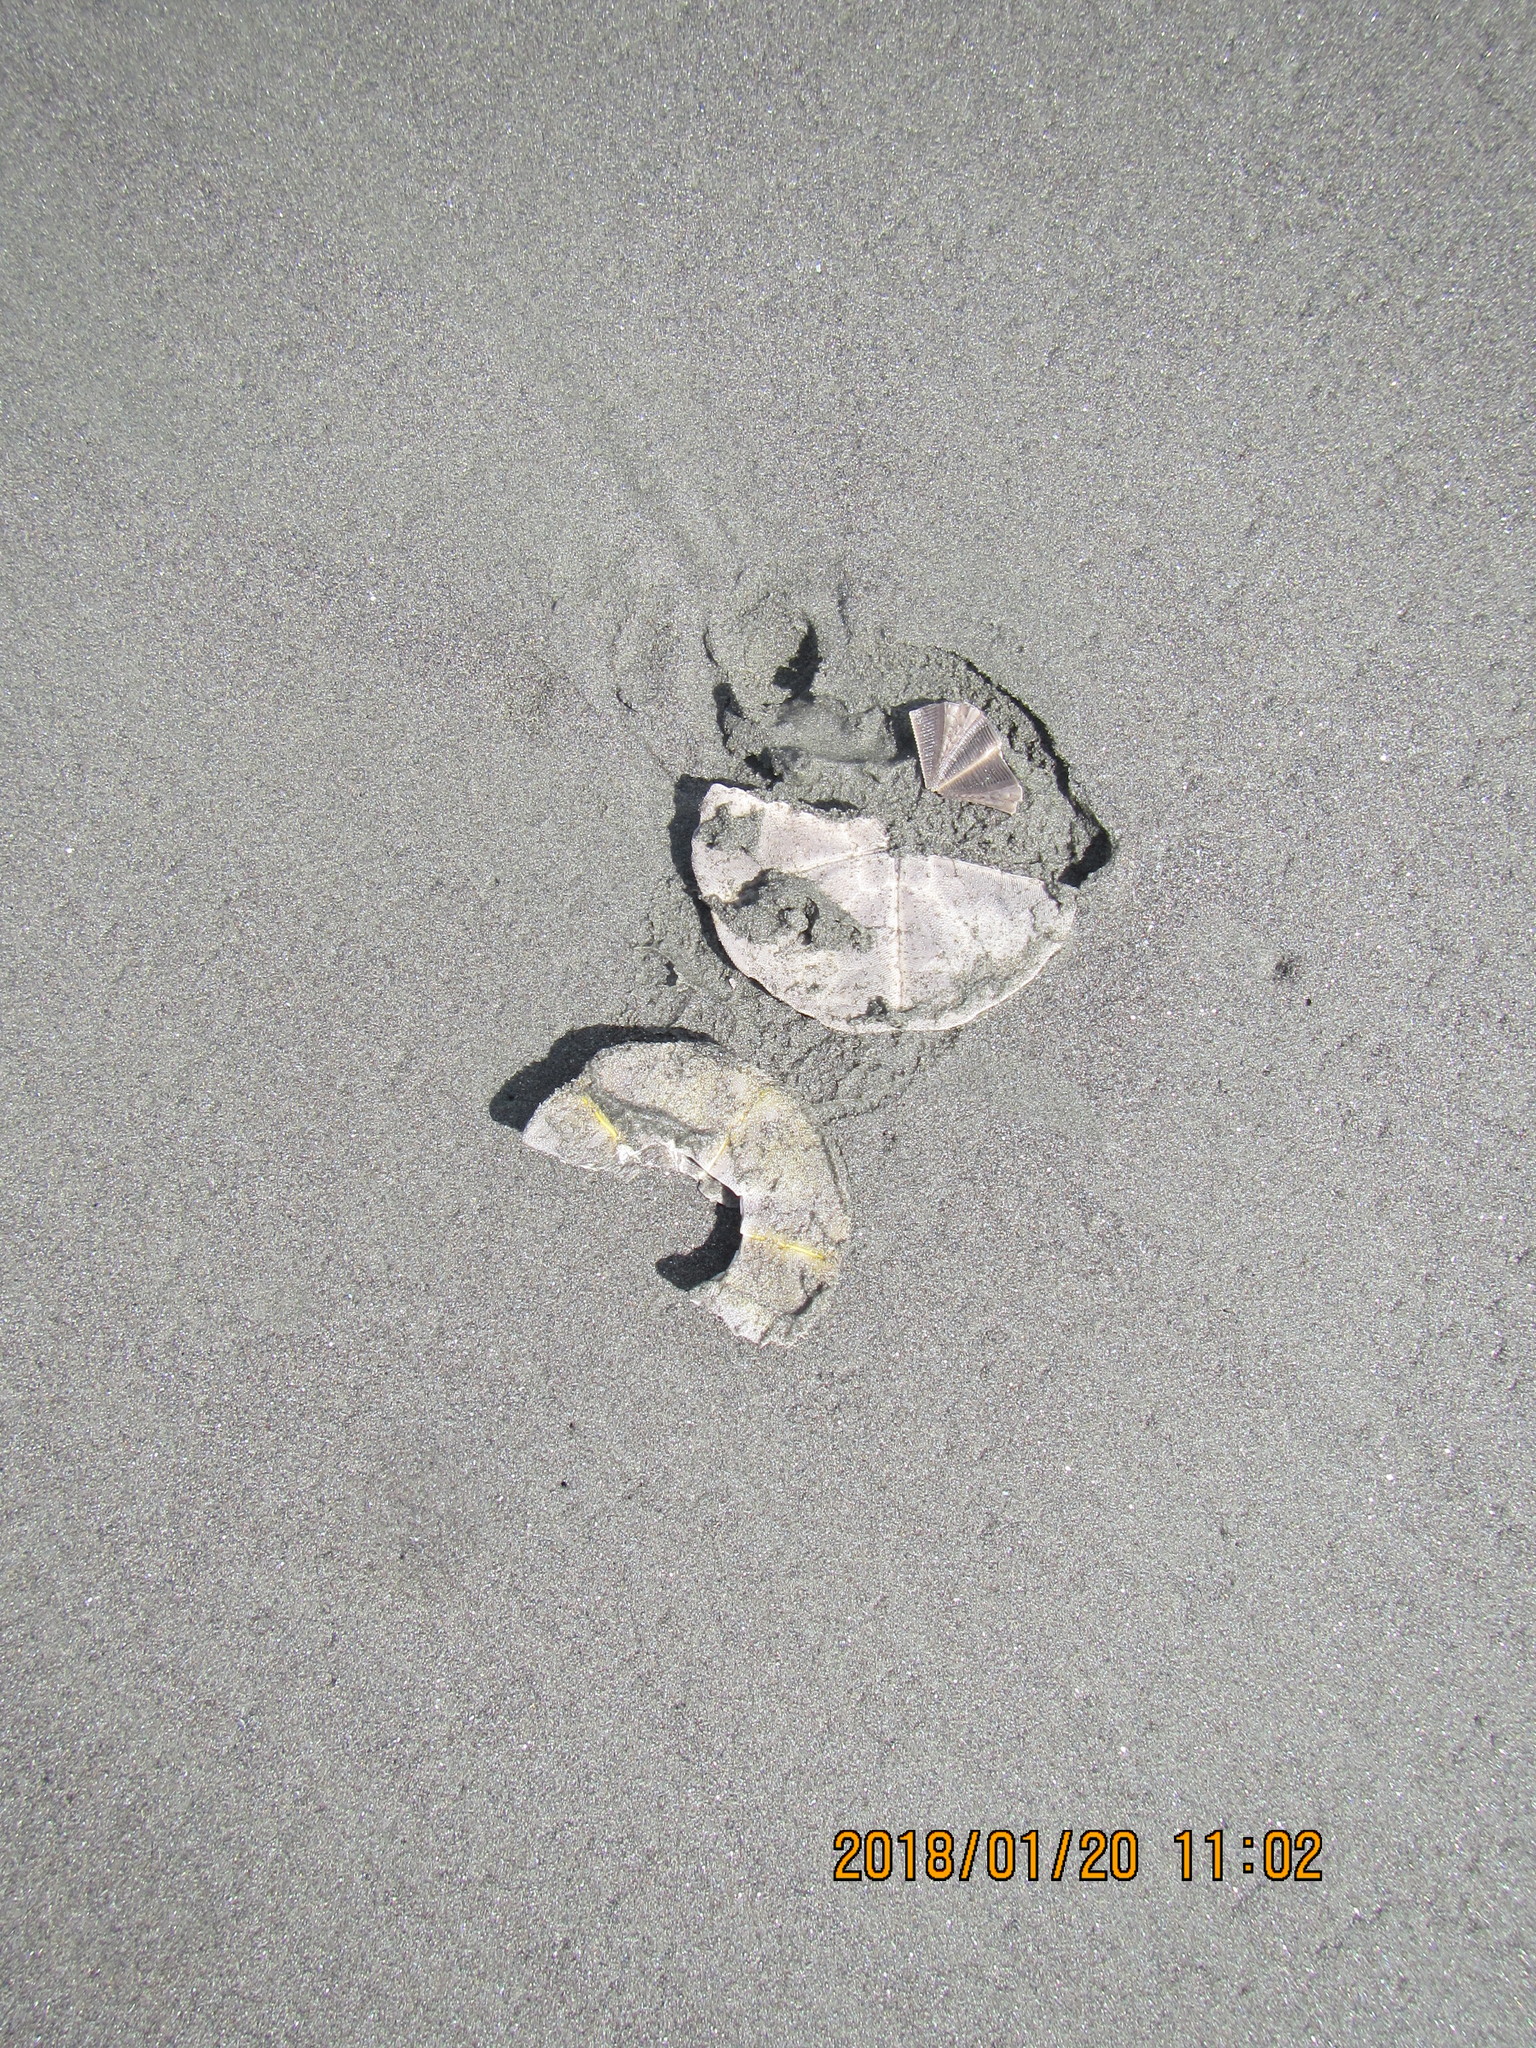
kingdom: Animalia
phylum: Echinodermata
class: Echinoidea
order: Clypeasteroida
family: Clypeasteridae
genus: Fellaster
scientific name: Fellaster zelandiae
